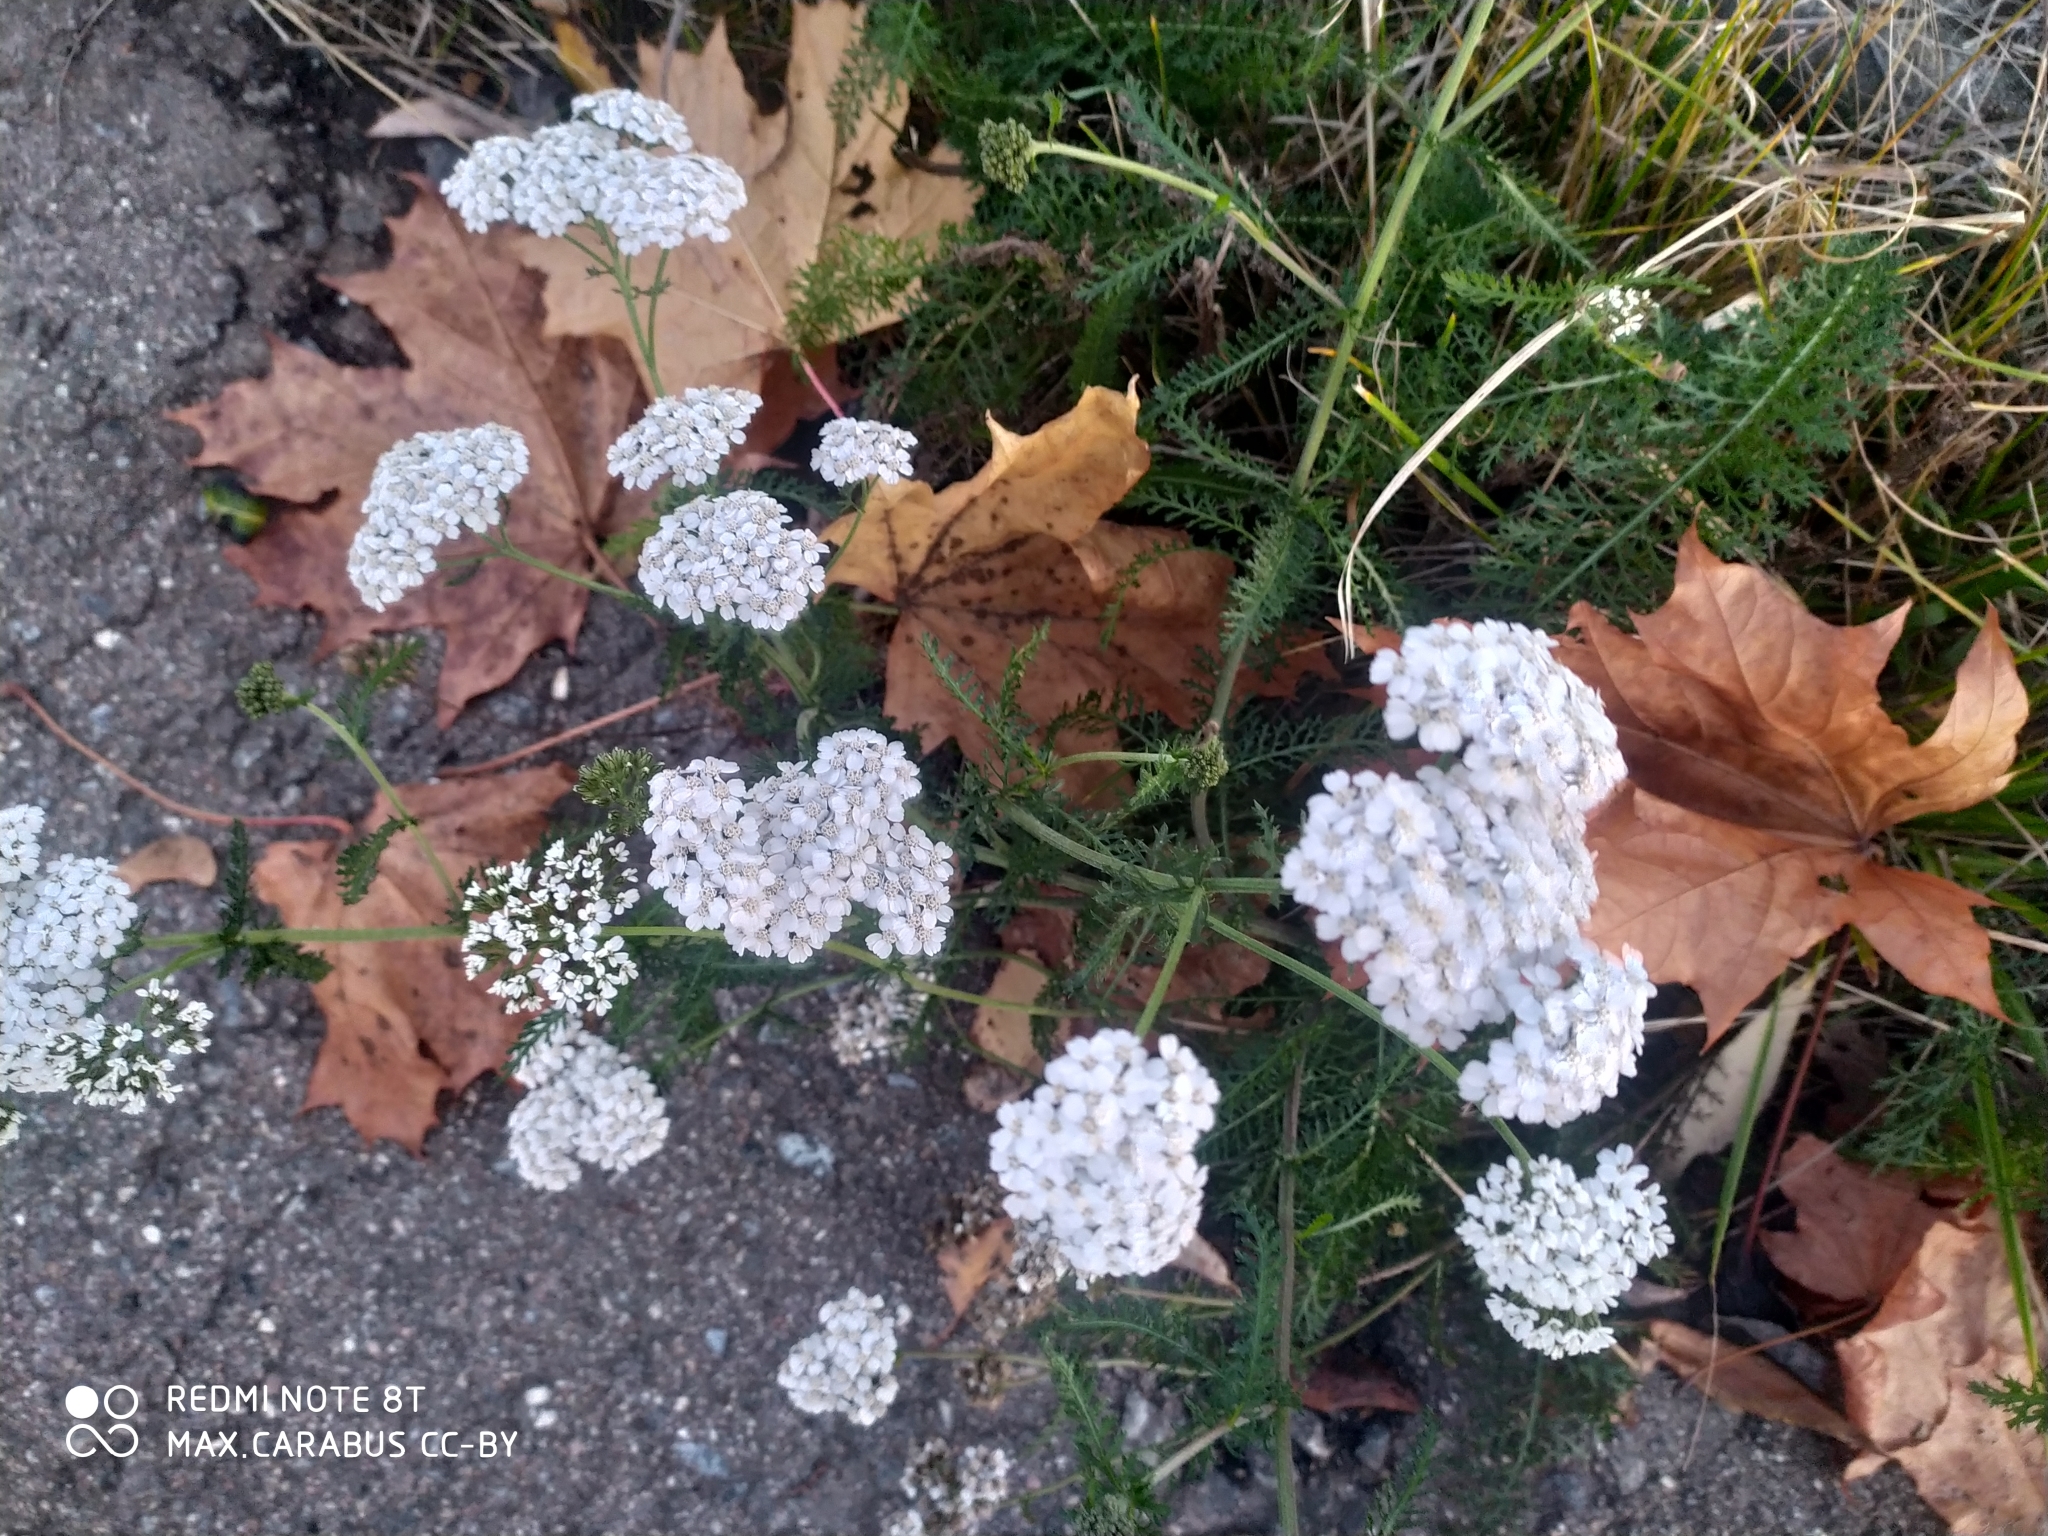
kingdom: Plantae
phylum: Tracheophyta
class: Magnoliopsida
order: Asterales
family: Asteraceae
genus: Achillea
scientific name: Achillea millefolium
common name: Yarrow
